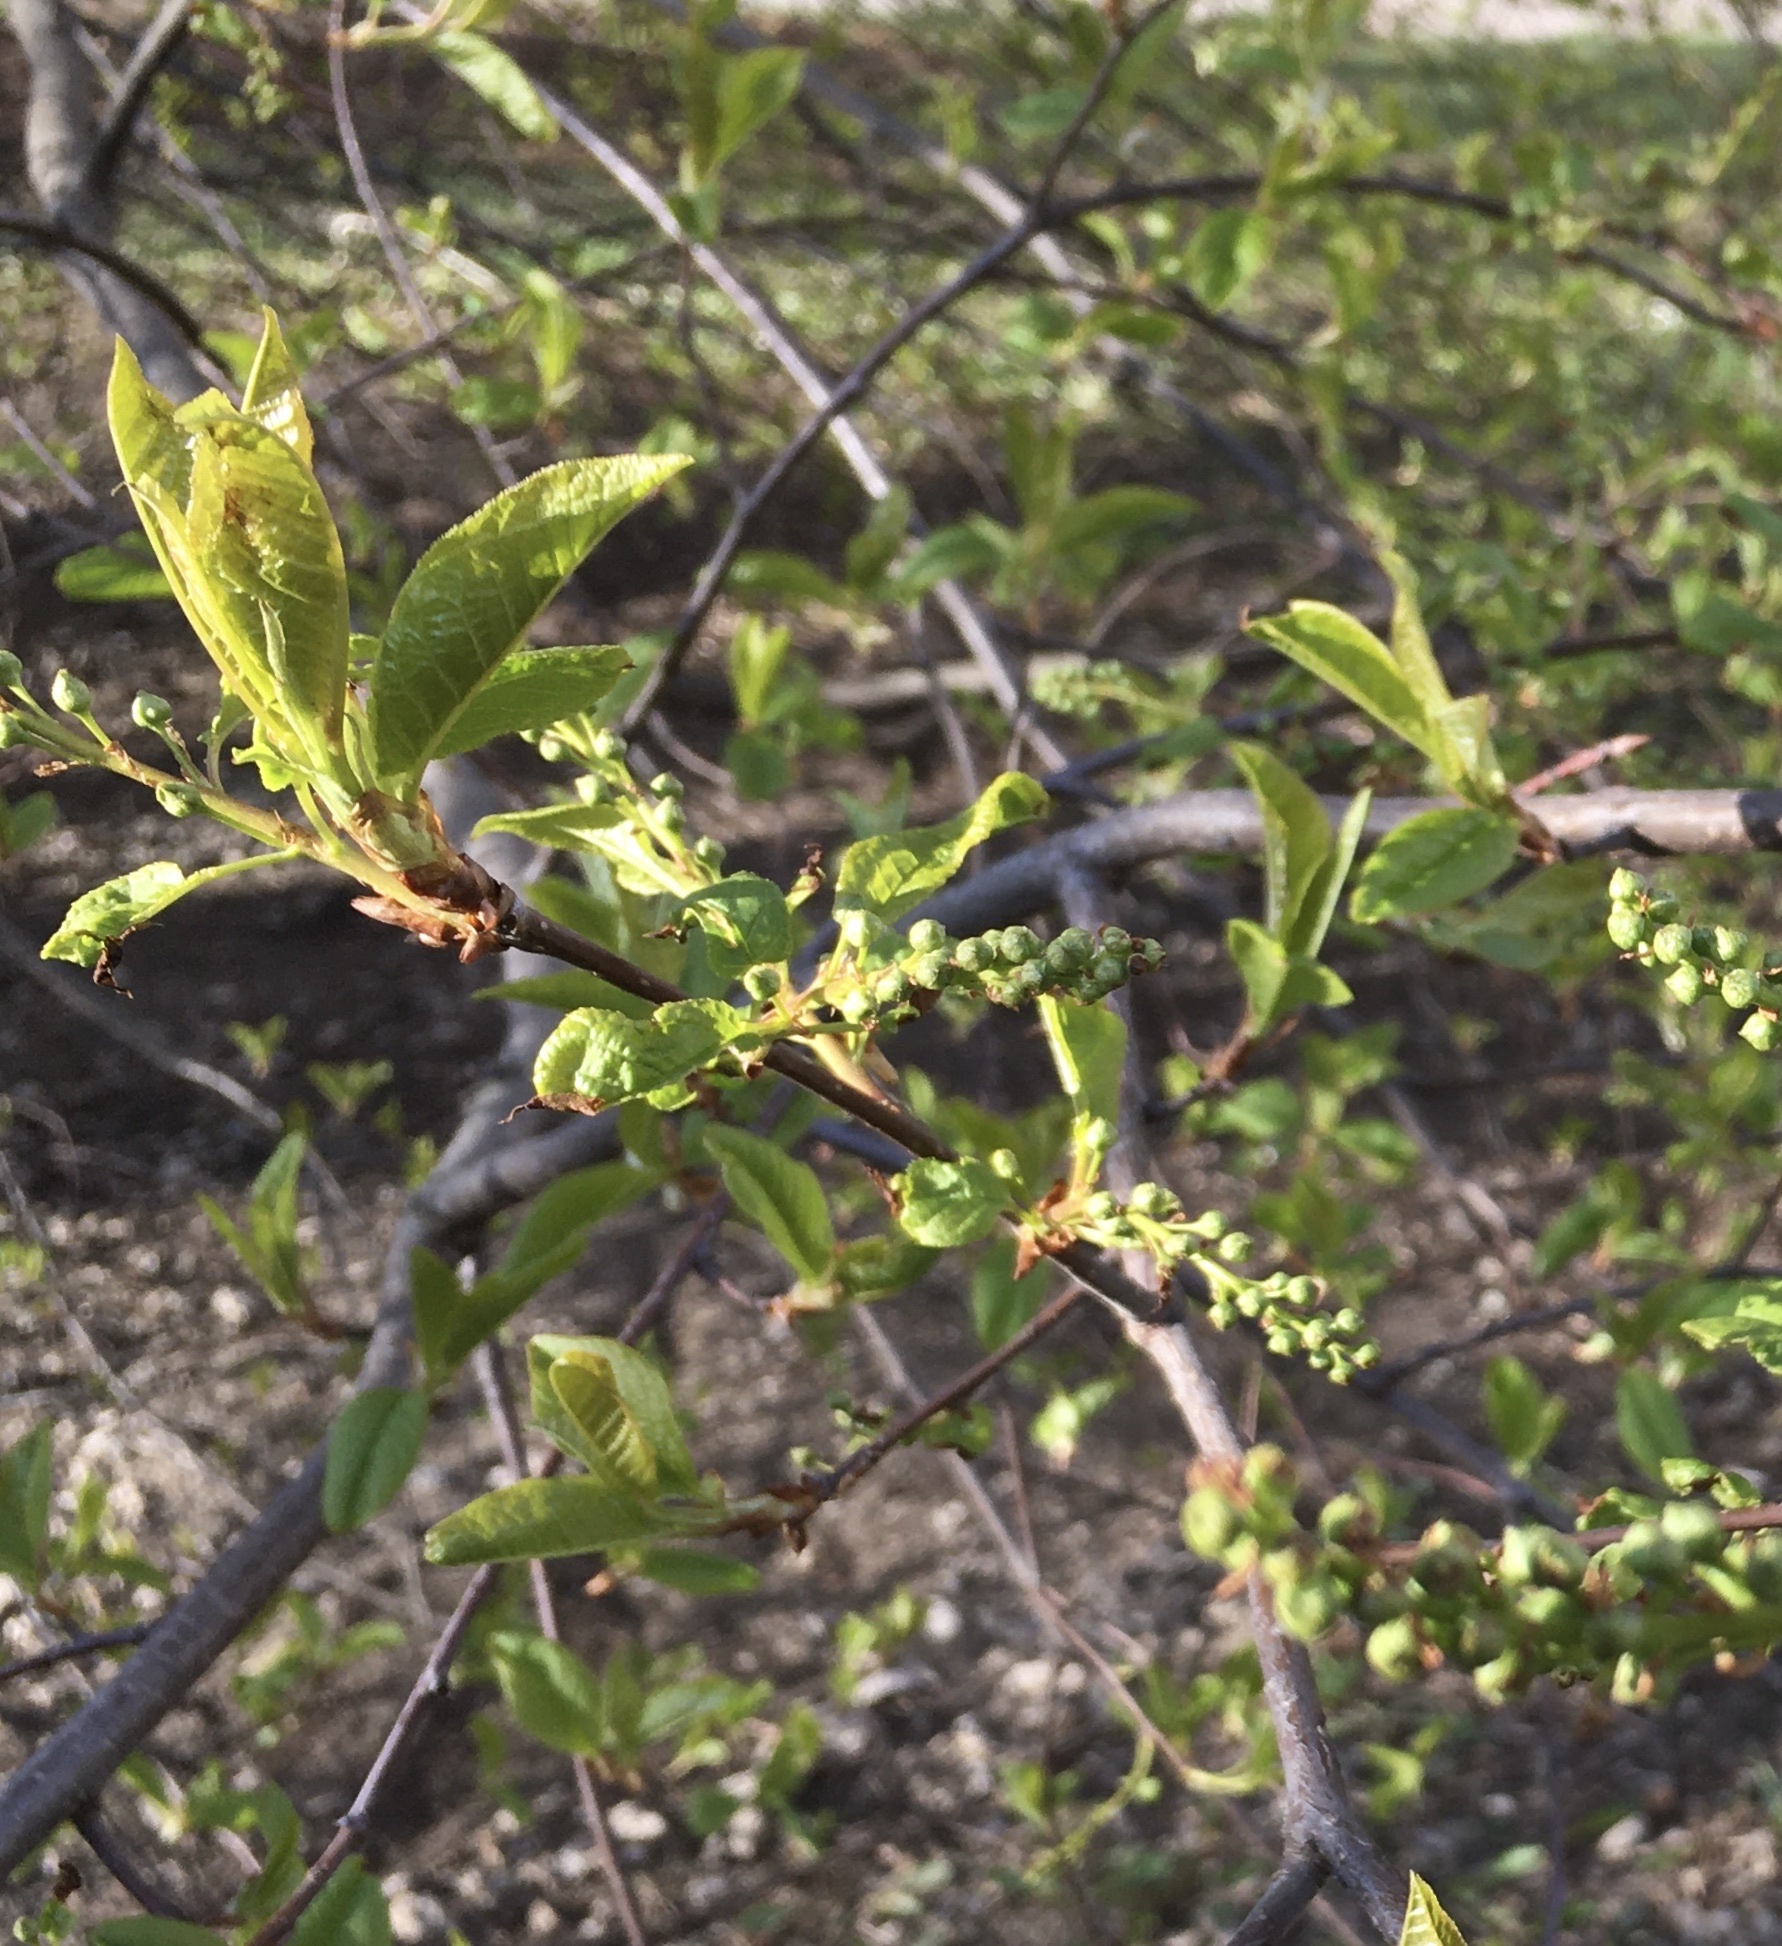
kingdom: Plantae
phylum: Tracheophyta
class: Magnoliopsida
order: Rosales
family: Rosaceae
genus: Prunus
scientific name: Prunus padus
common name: Bird cherry
